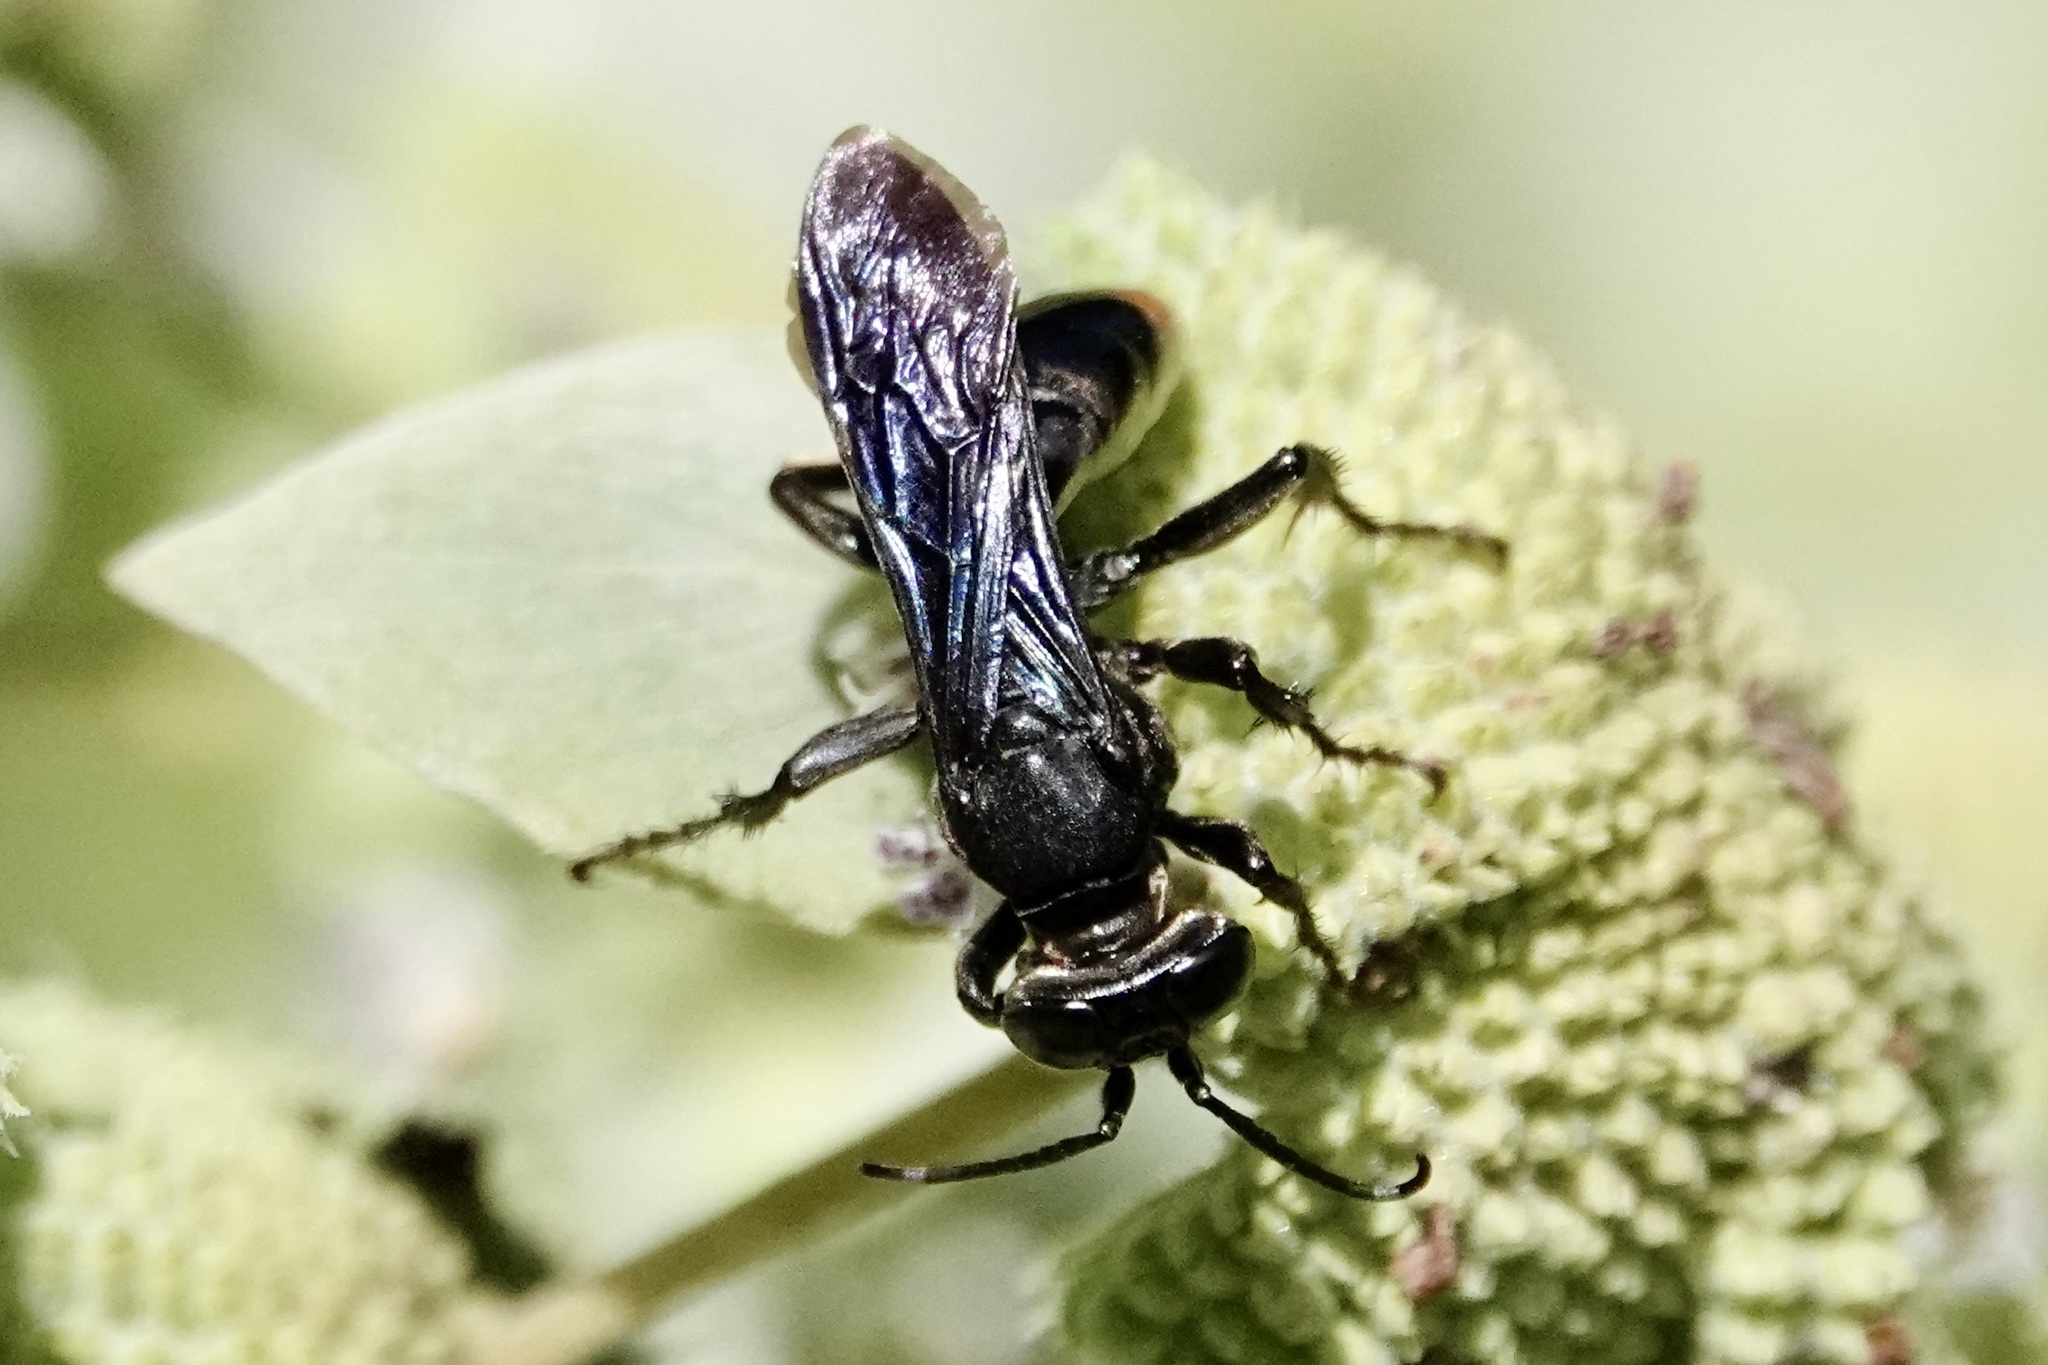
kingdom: Animalia
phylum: Arthropoda
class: Insecta
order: Hymenoptera
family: Crabronidae
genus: Larra
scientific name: Larra analis
